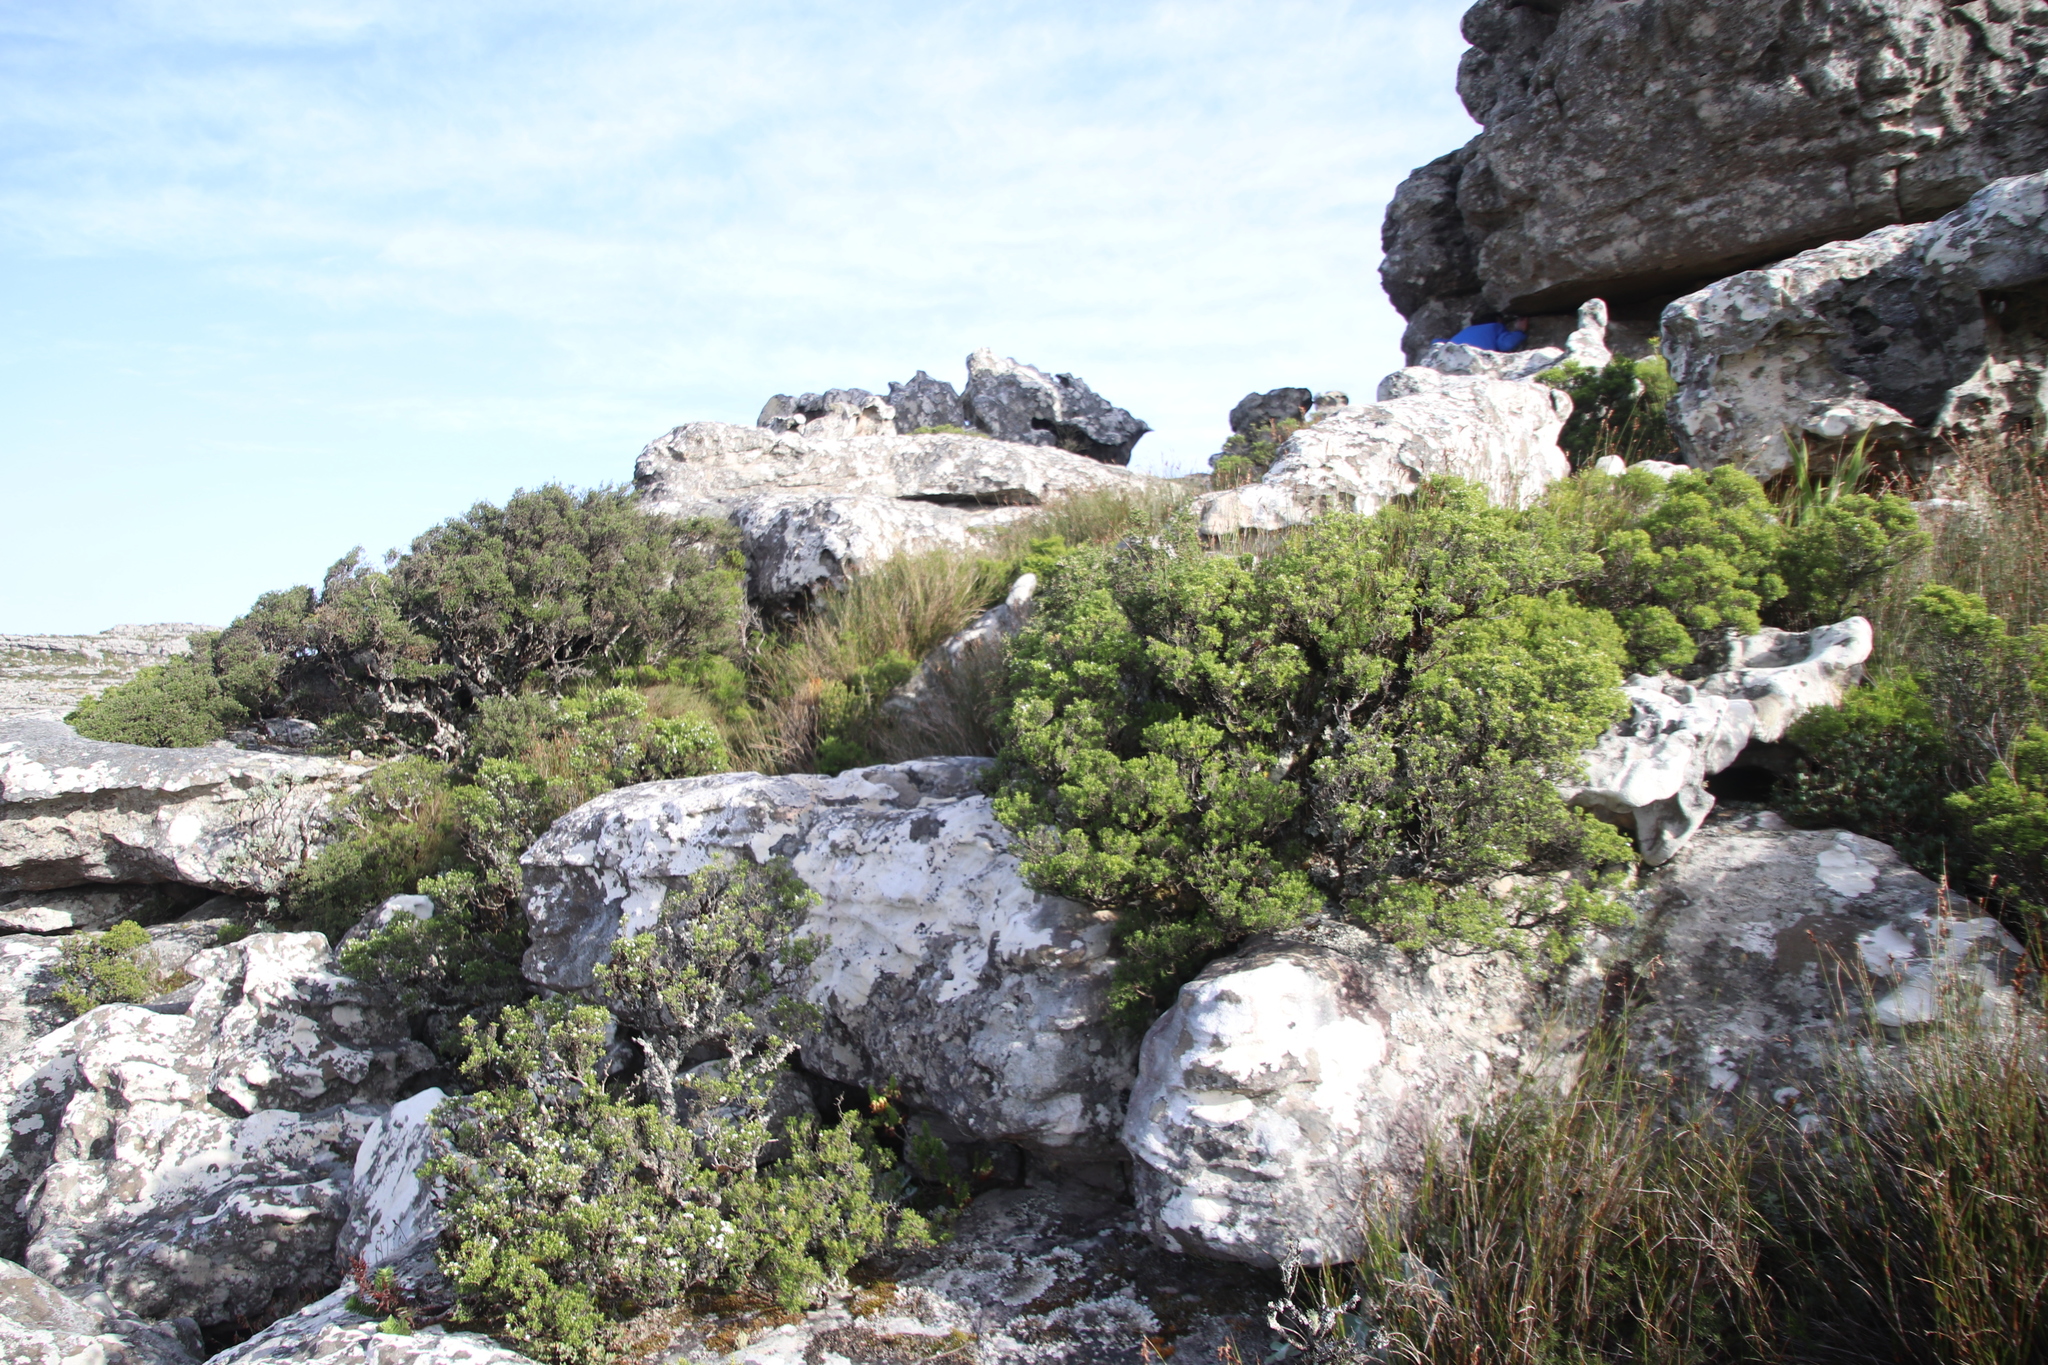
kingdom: Plantae
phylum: Tracheophyta
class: Magnoliopsida
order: Sapindales
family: Rutaceae
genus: Coleonema
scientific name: Coleonema album
